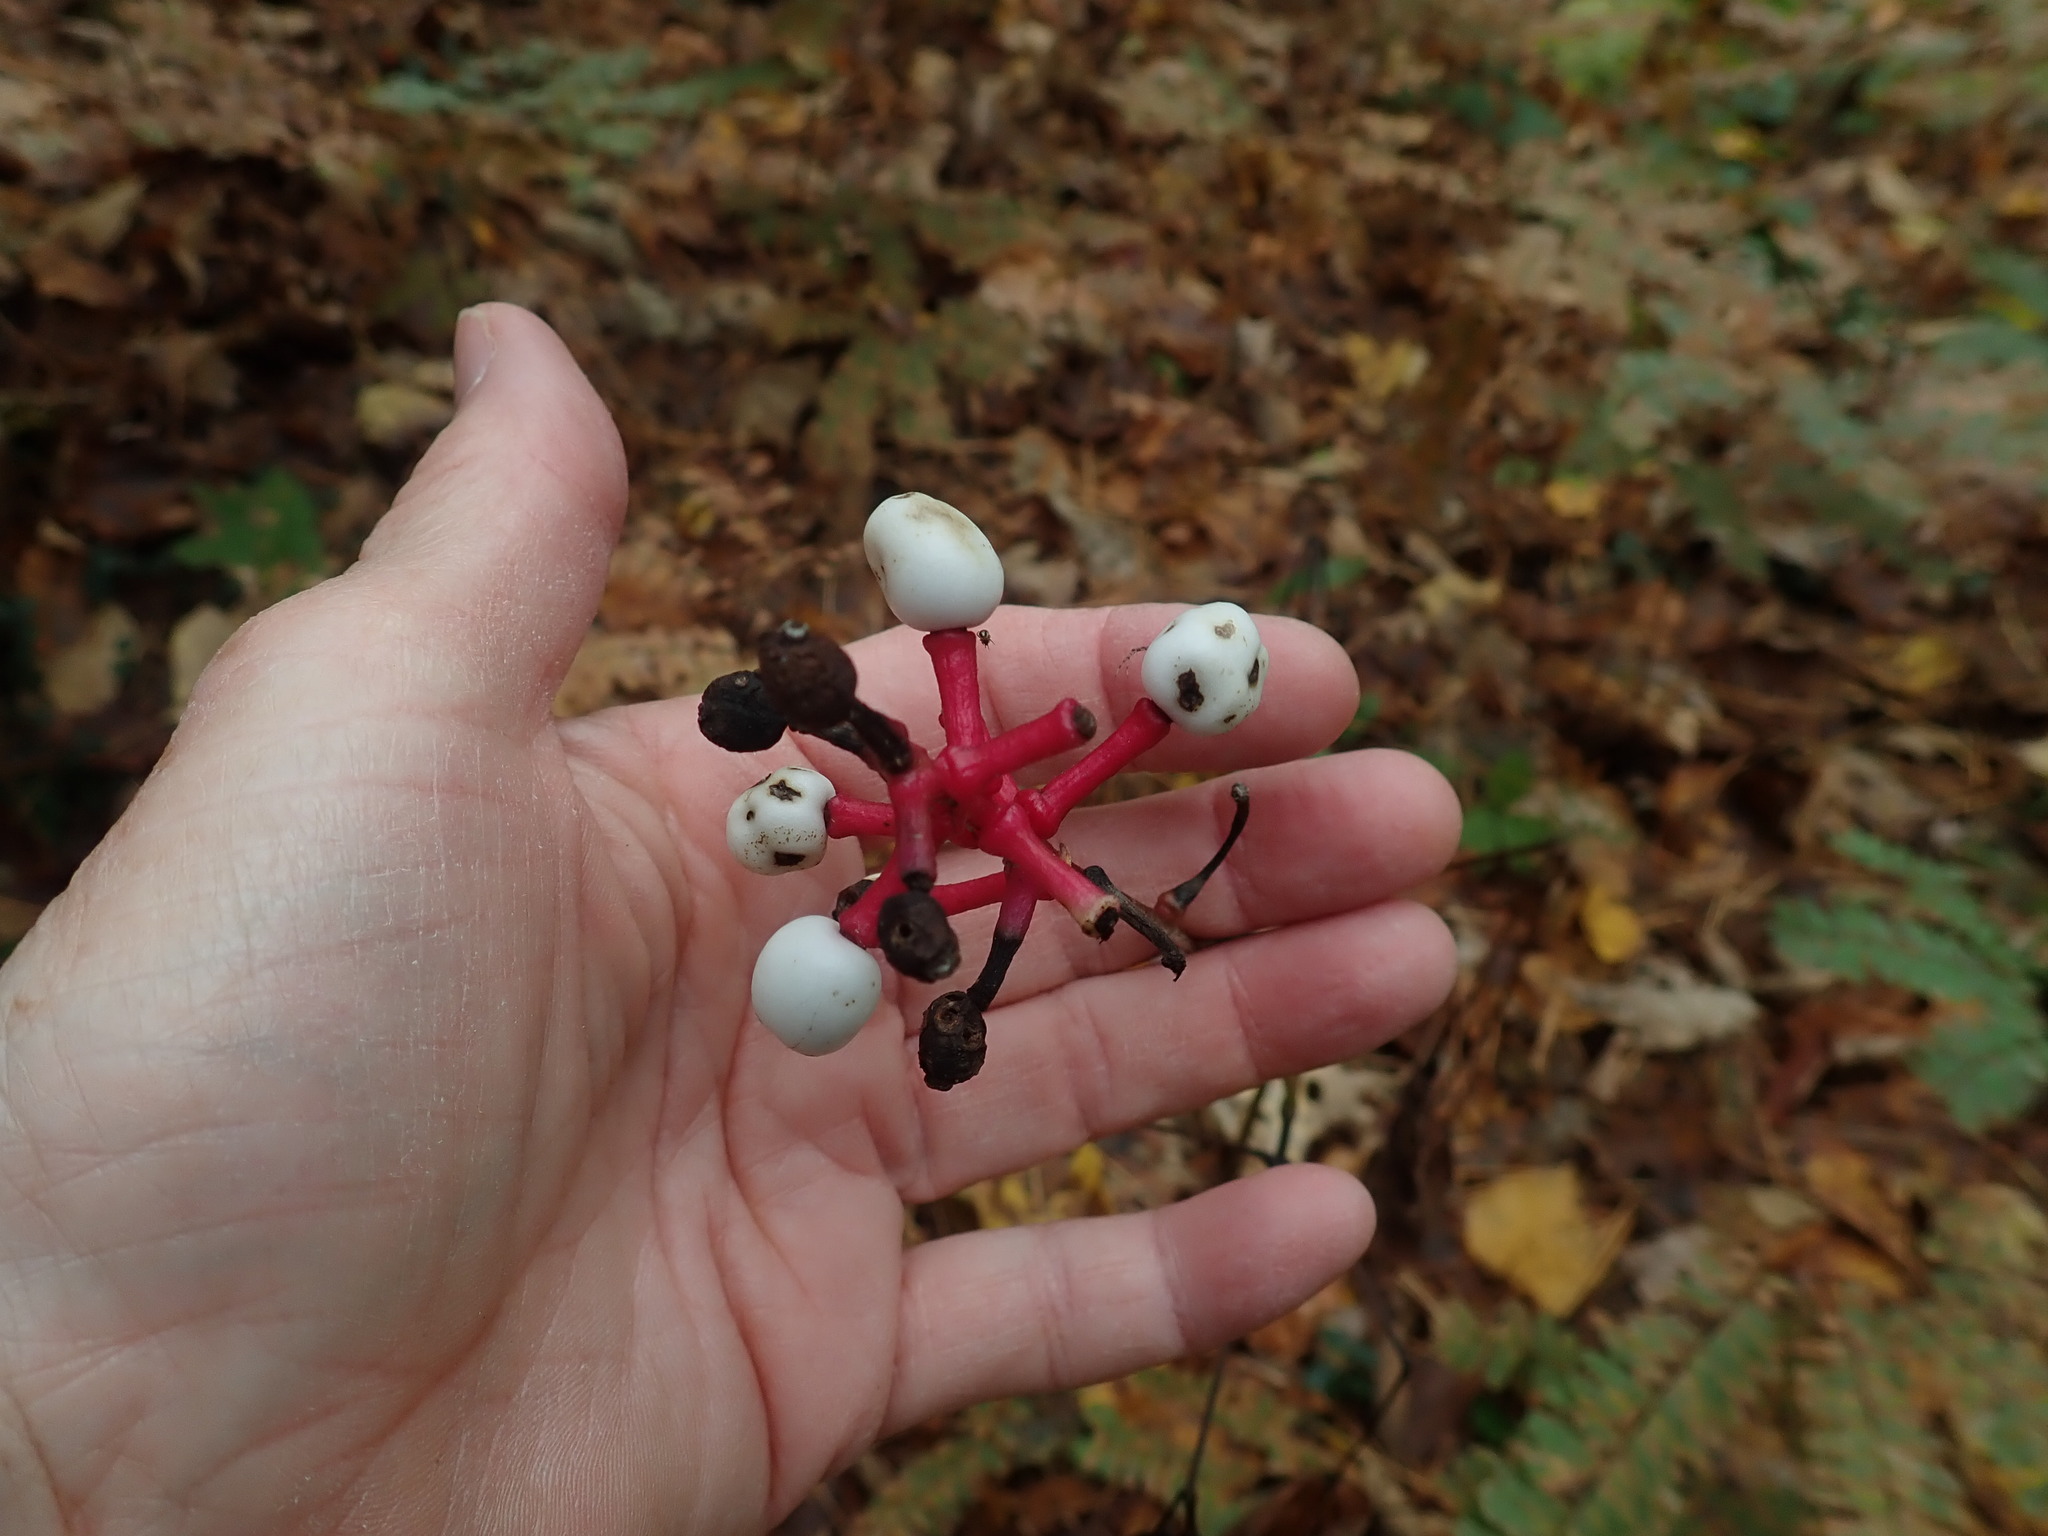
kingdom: Plantae
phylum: Tracheophyta
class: Magnoliopsida
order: Ranunculales
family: Ranunculaceae
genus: Actaea
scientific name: Actaea pachypoda
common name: Doll's-eyes
